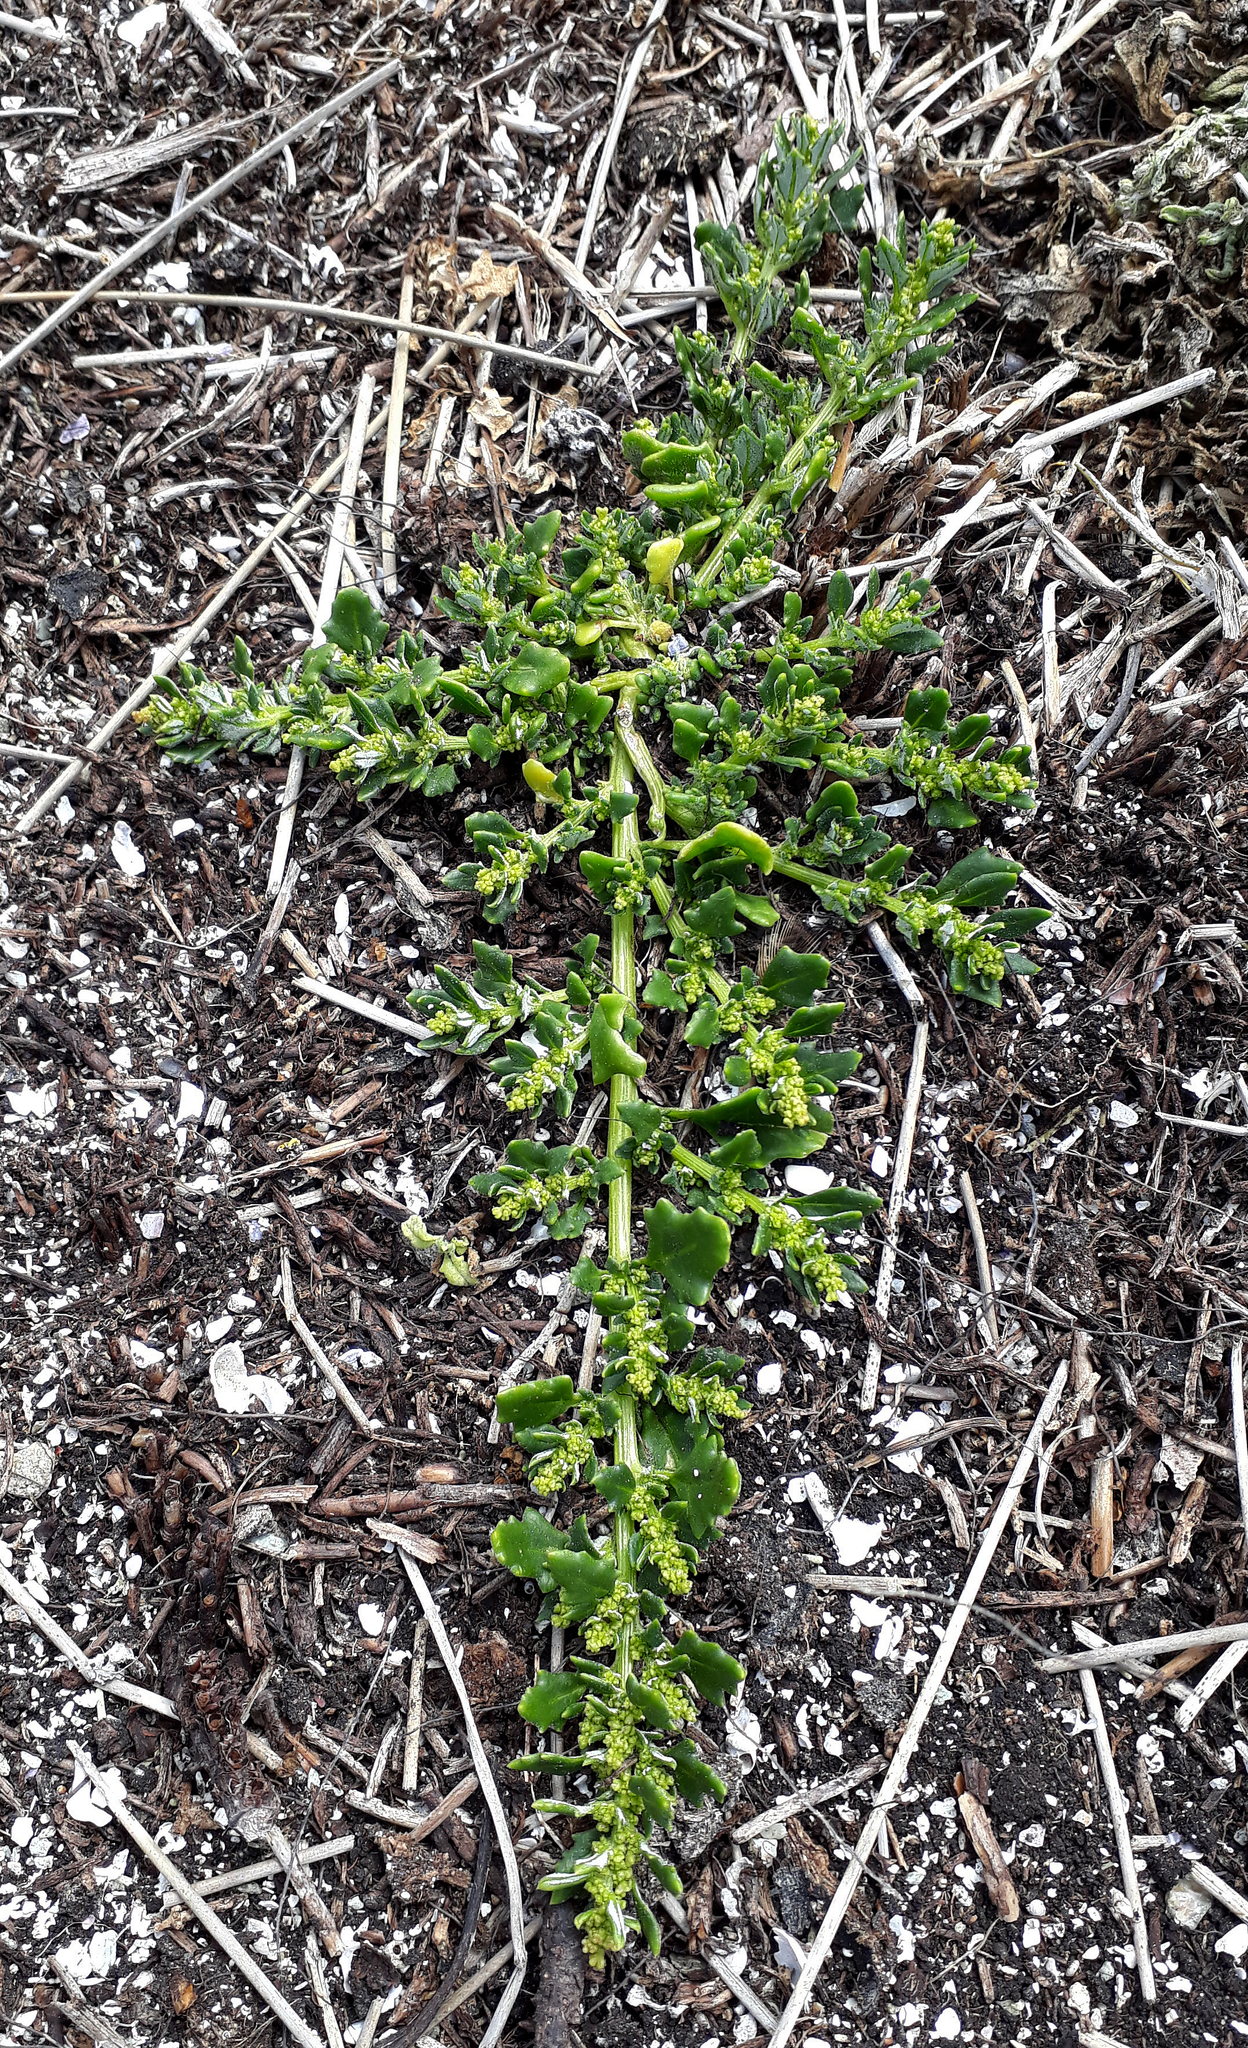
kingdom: Plantae
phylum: Tracheophyta
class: Magnoliopsida
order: Caryophyllales
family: Amaranthaceae
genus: Oxybasis
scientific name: Oxybasis ambigua
